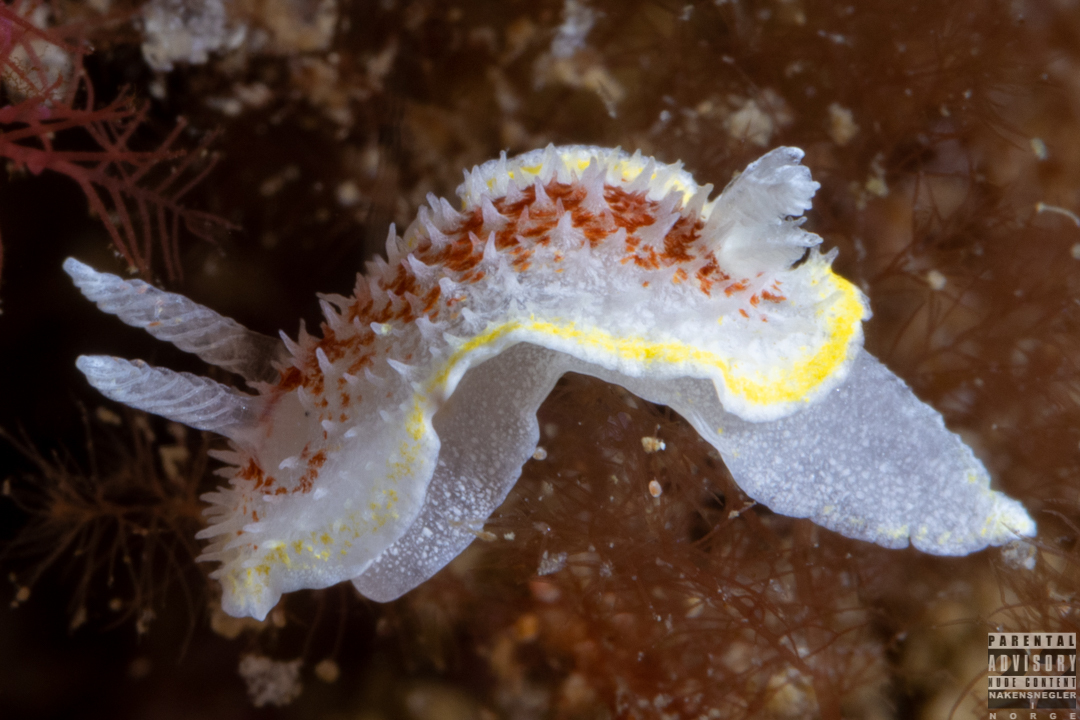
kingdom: Animalia
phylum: Mollusca
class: Gastropoda
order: Nudibranchia
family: Calycidorididae
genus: Diaphorodoris
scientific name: Diaphorodoris luteocincta
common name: Fried egg nudibranch
